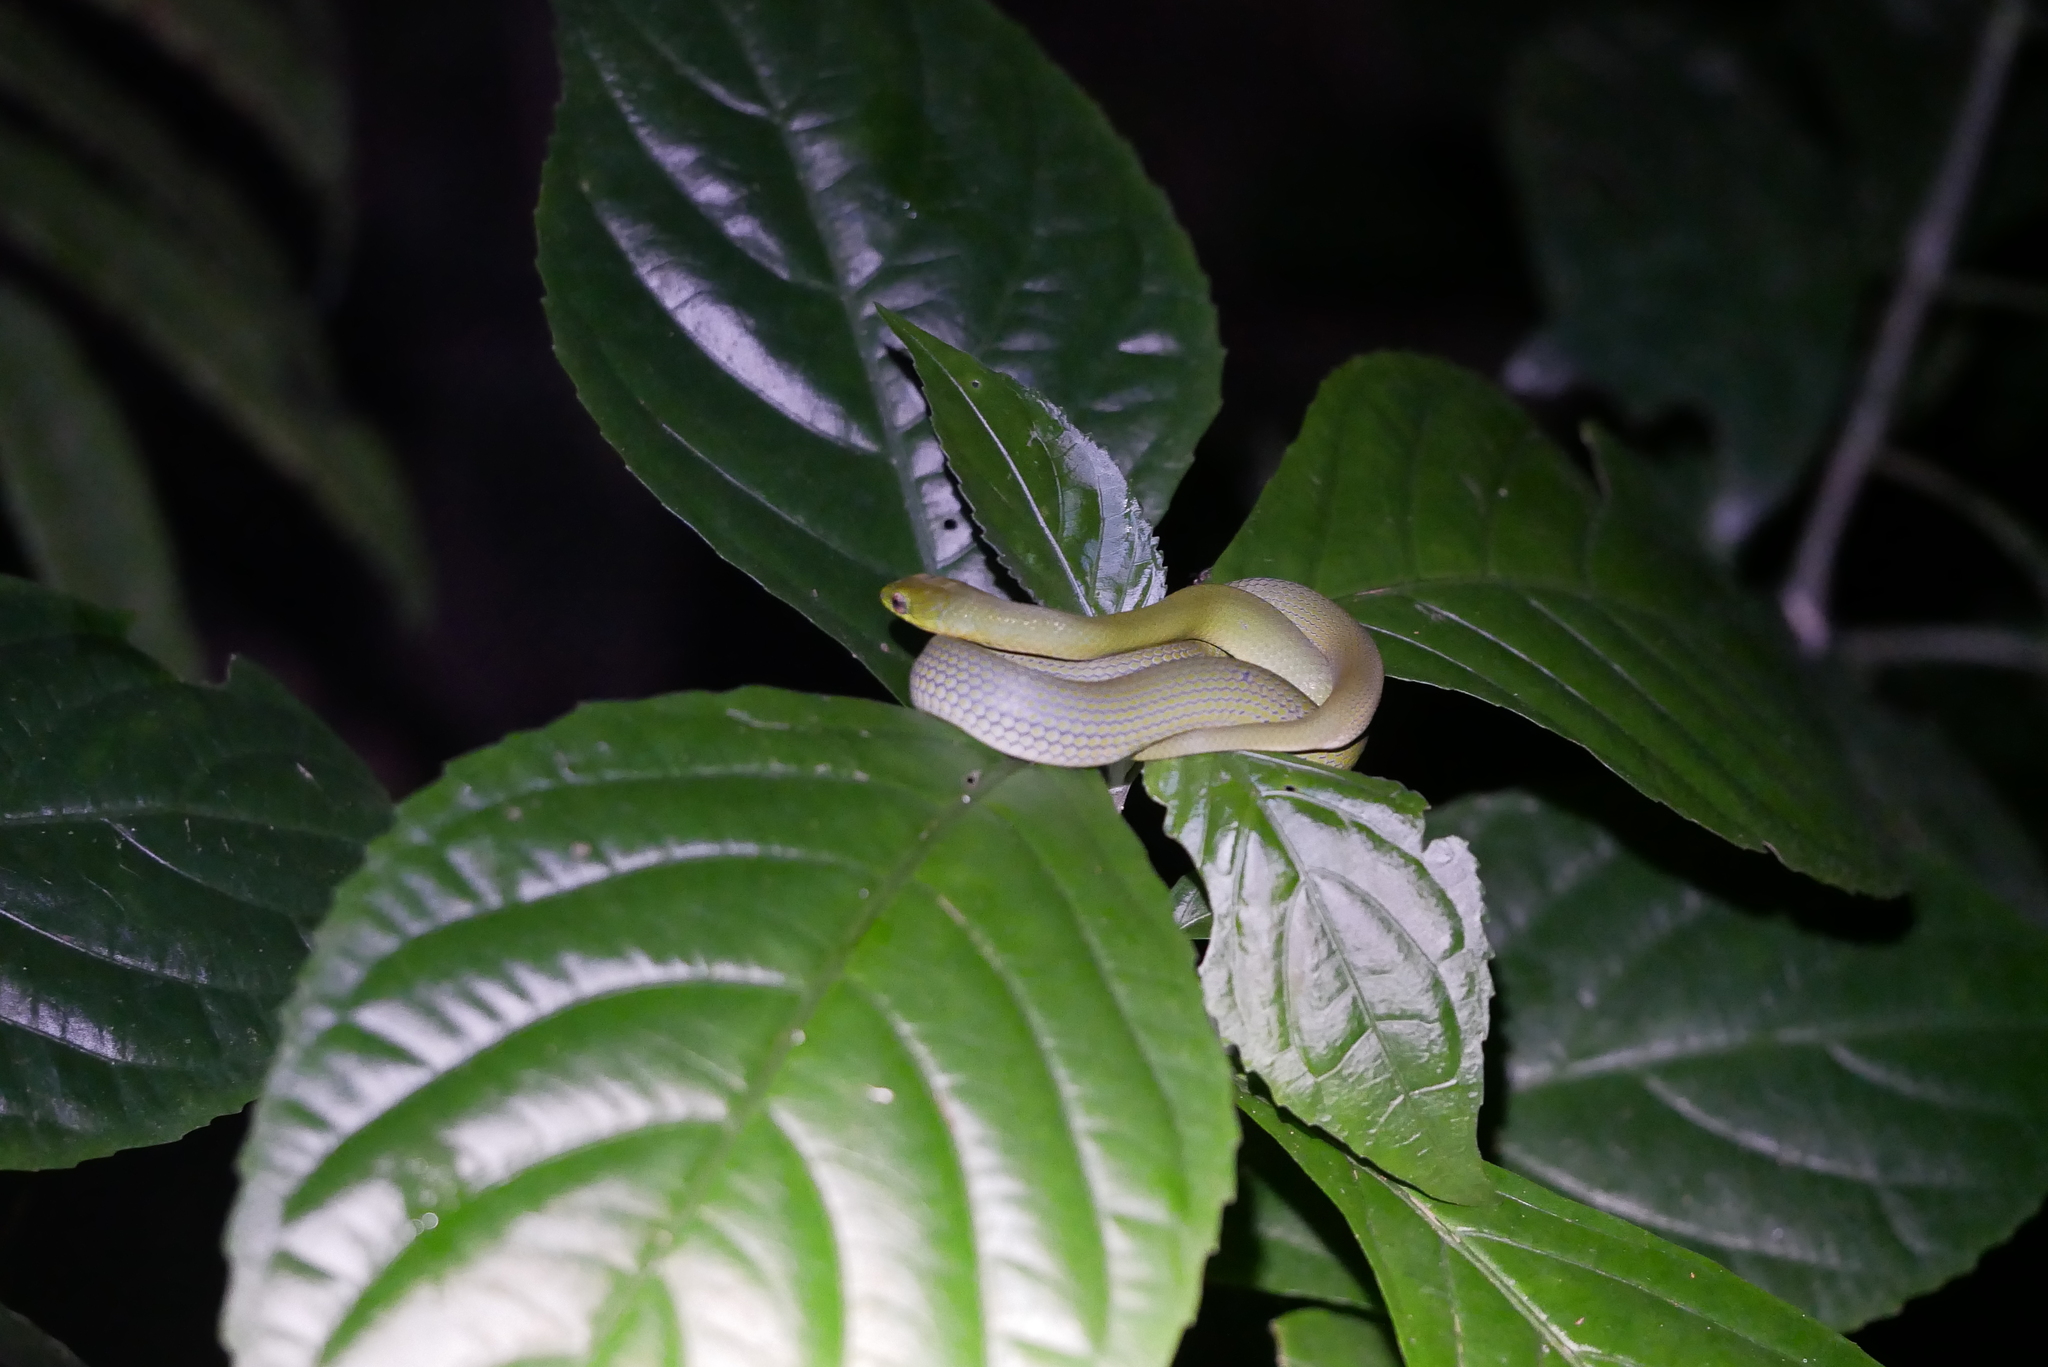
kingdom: Animalia
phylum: Chordata
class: Squamata
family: Colubridae
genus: Ptyas
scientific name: Ptyas major
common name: Chinese green snake
